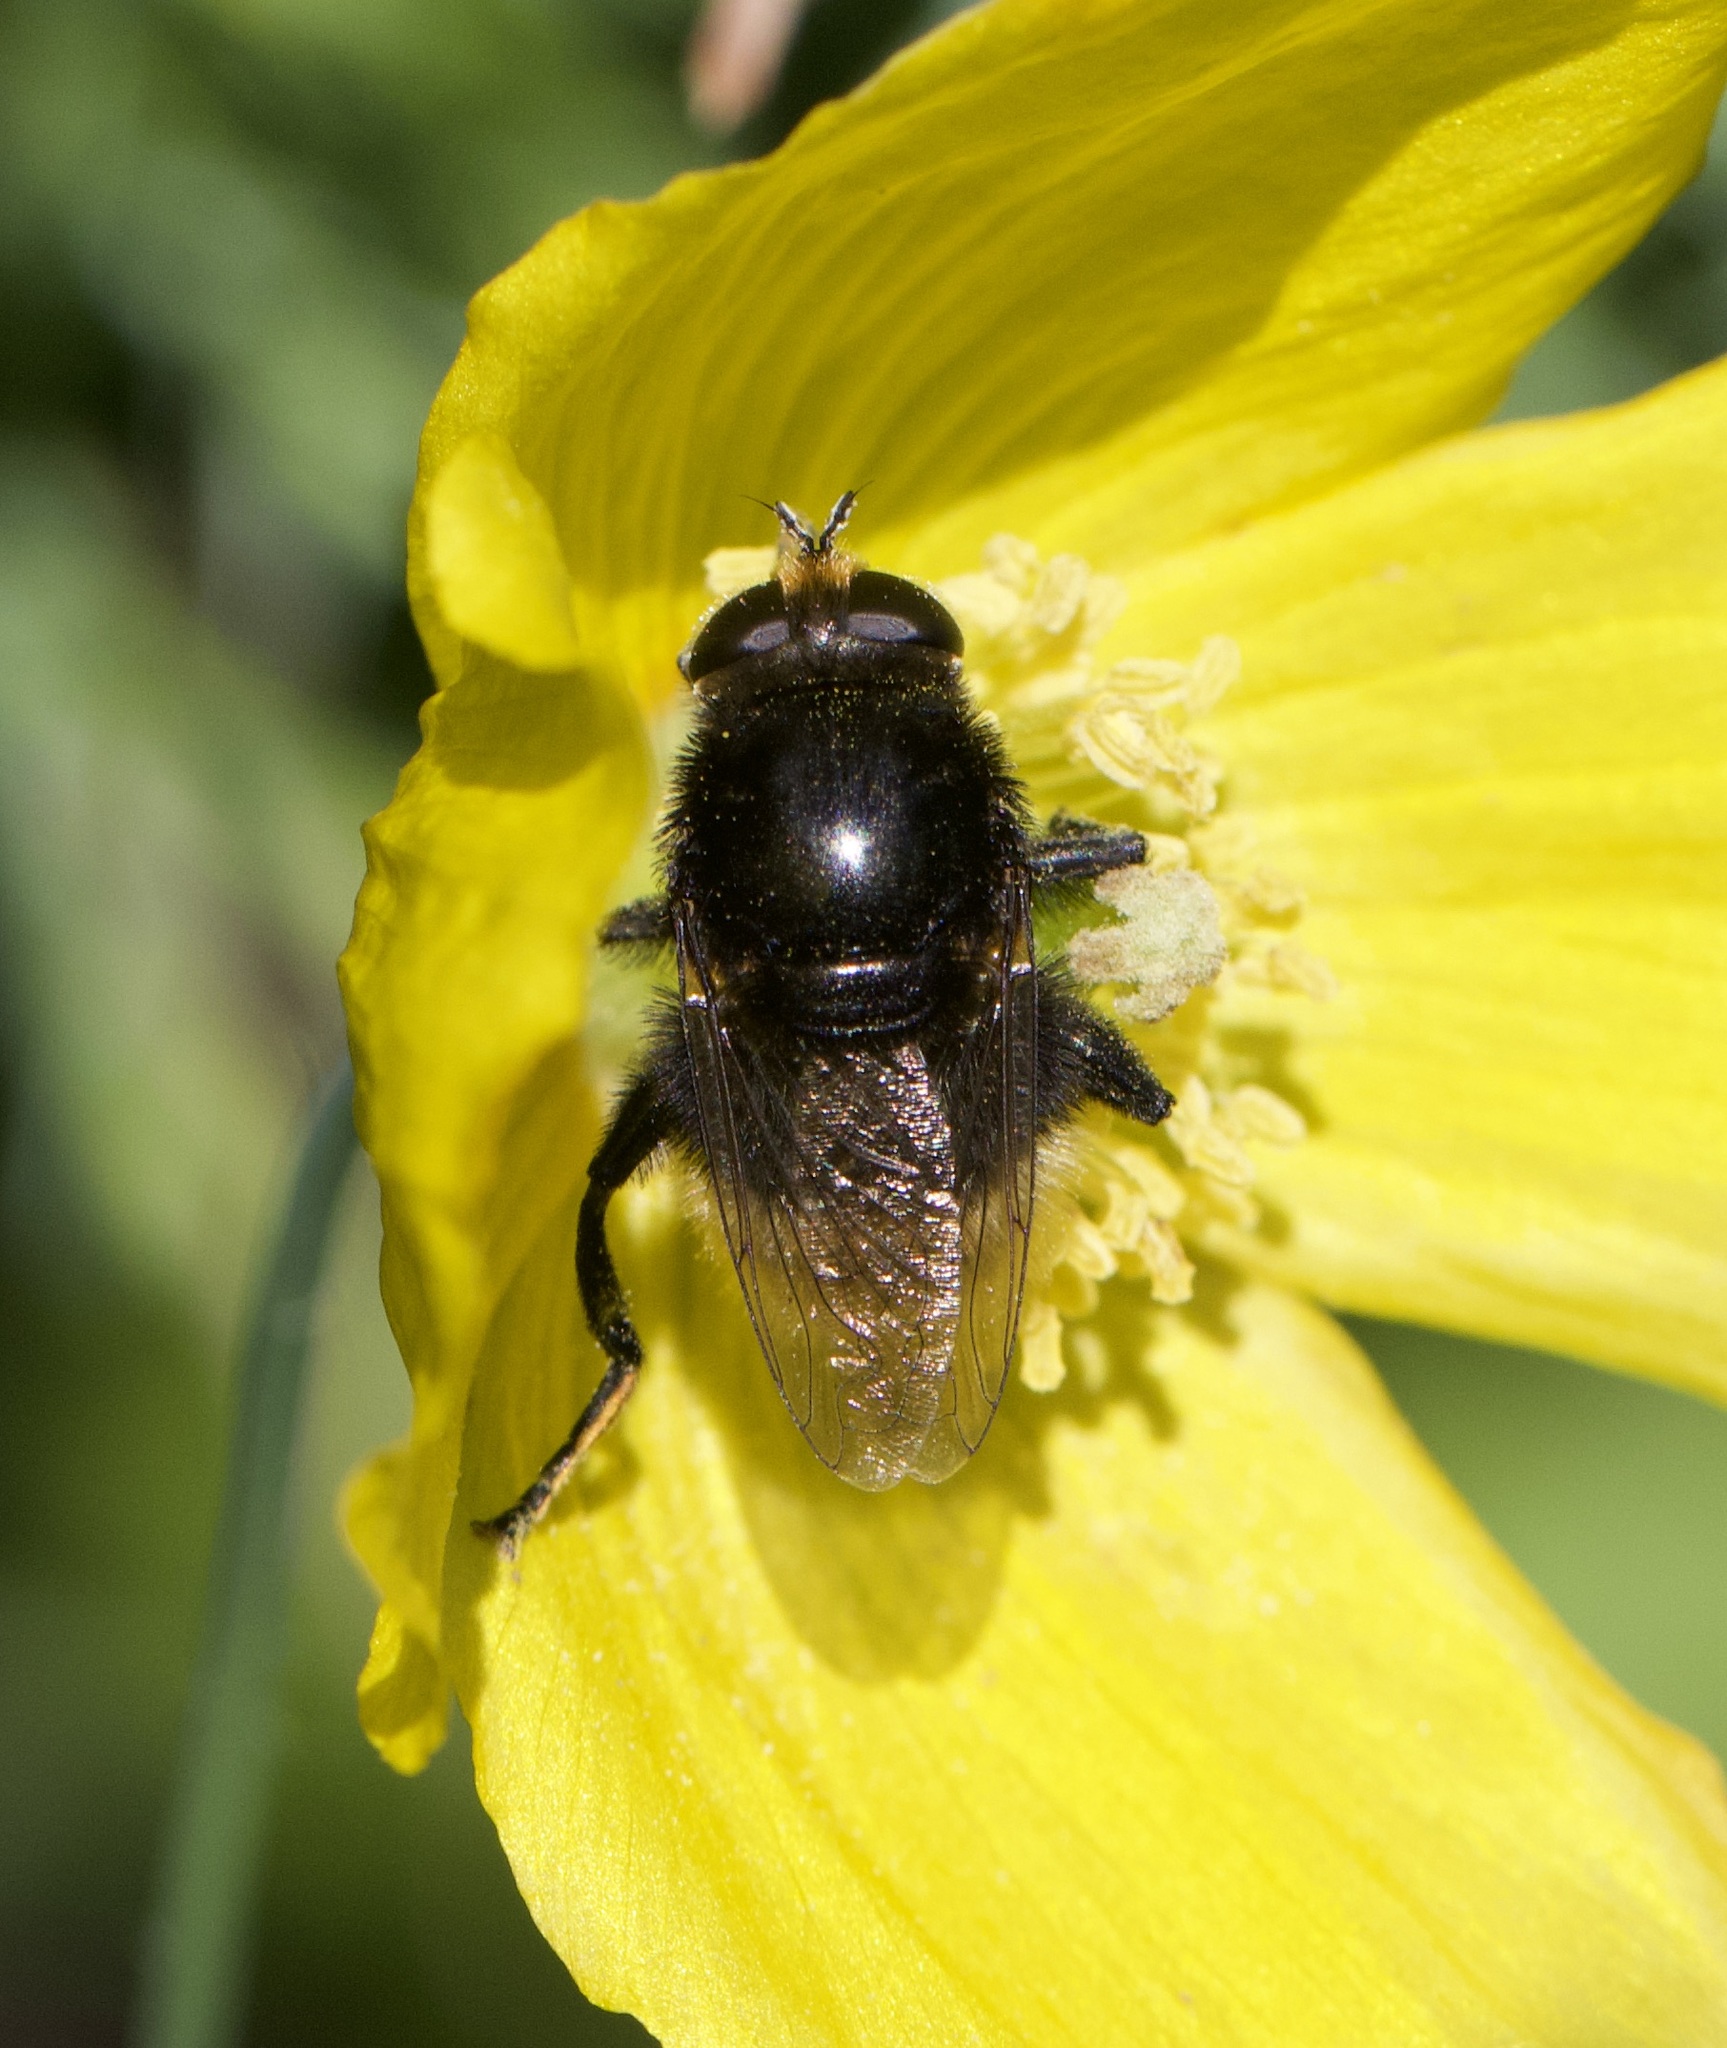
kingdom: Animalia
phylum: Arthropoda
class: Insecta
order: Diptera
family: Syrphidae
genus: Merodon
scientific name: Merodon equestris
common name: Greater bulb-fly
